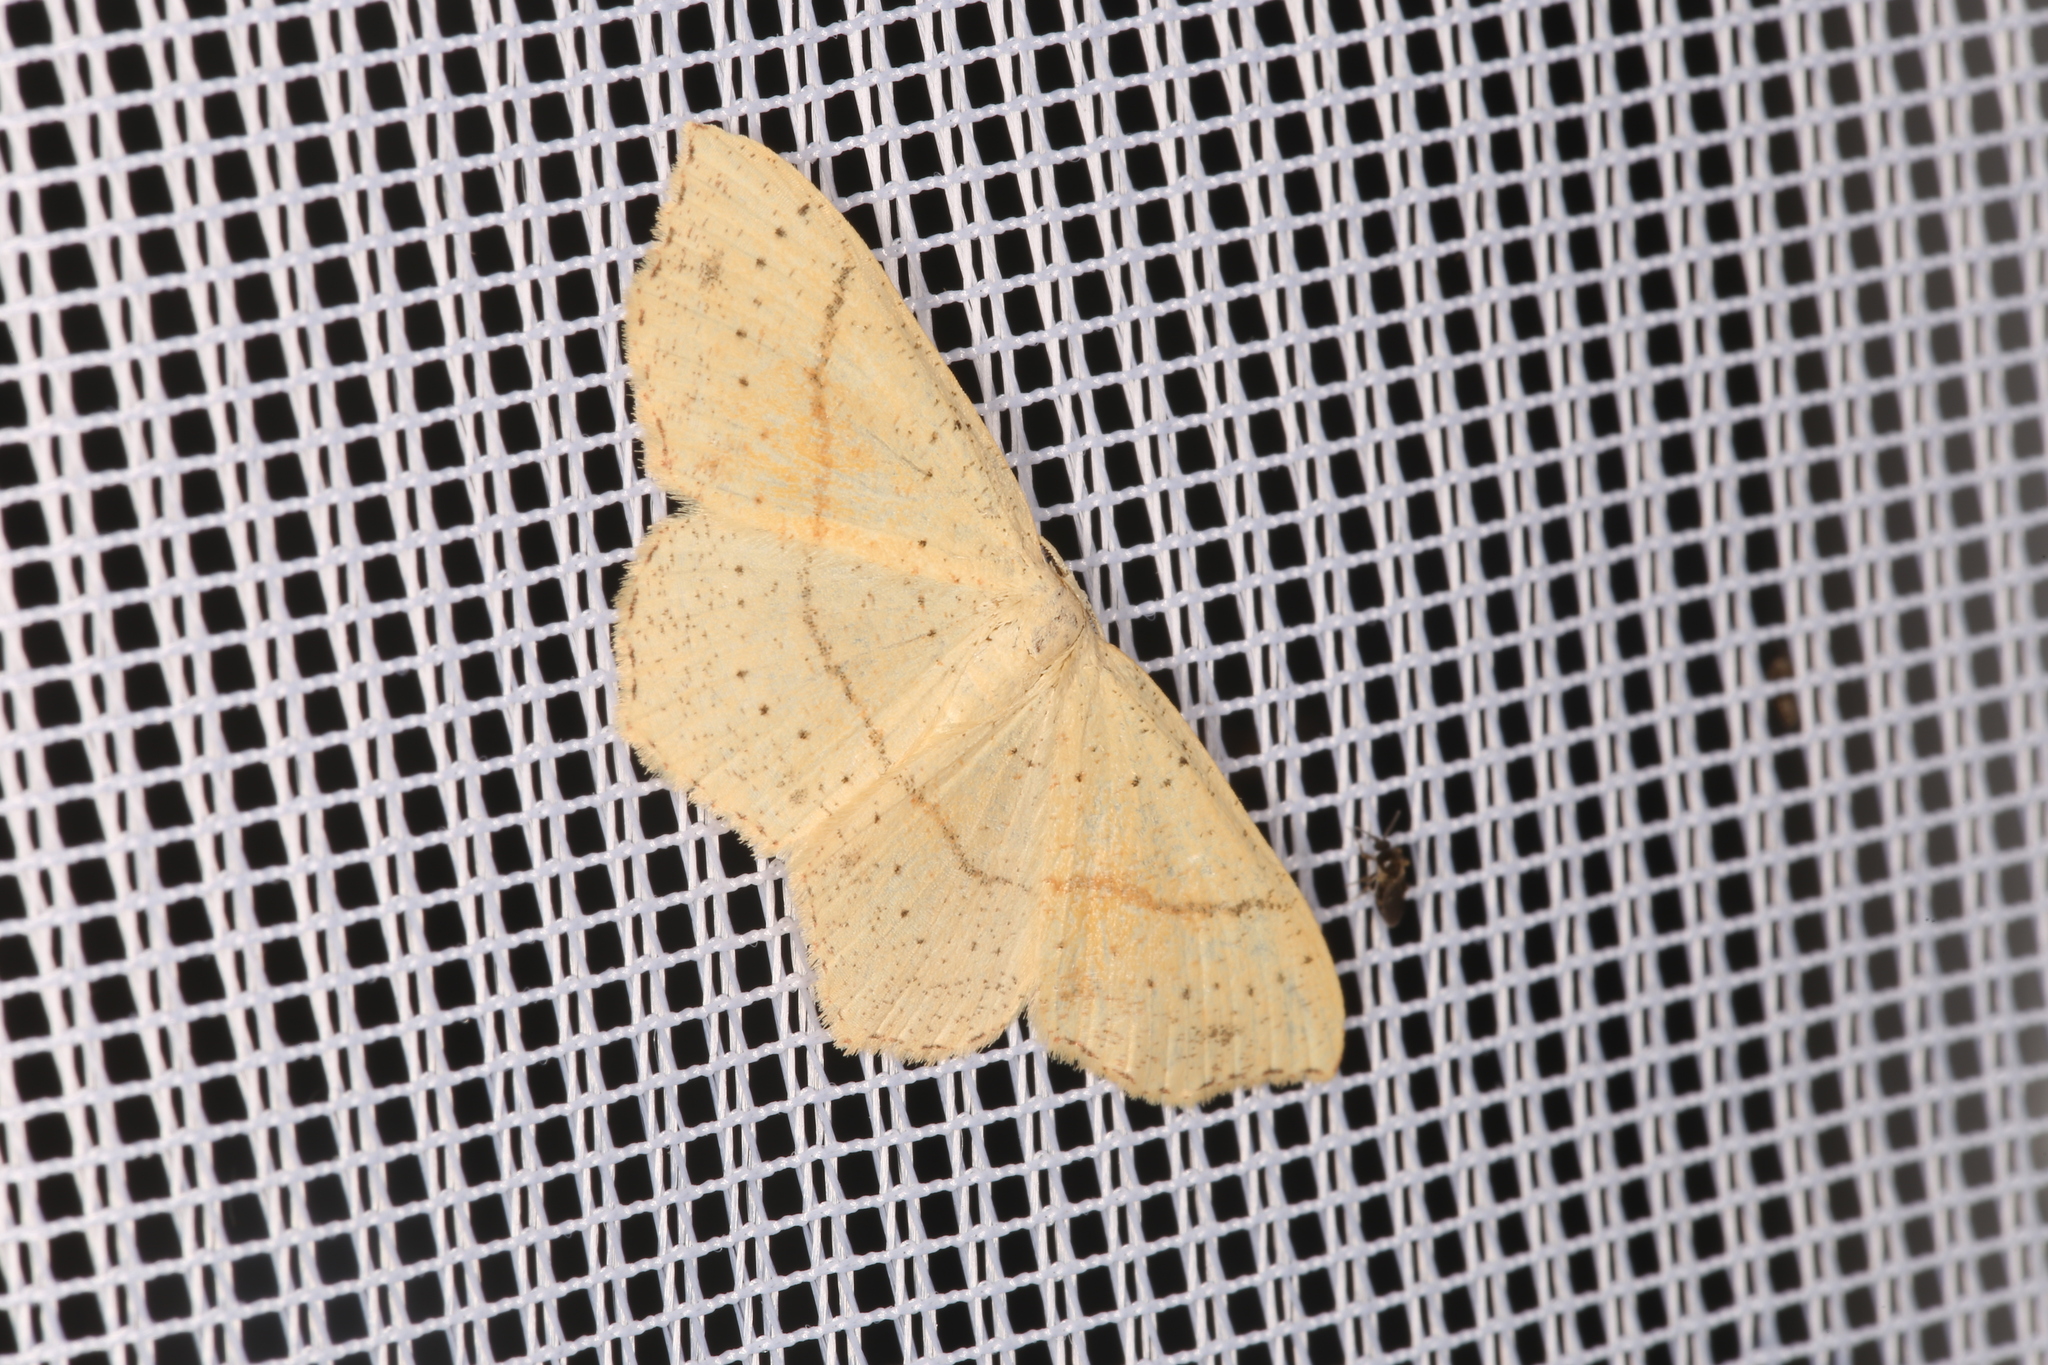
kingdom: Animalia
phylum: Arthropoda
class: Insecta
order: Lepidoptera
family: Geometridae
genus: Cyclophora
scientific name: Cyclophora punctaria
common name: Maiden's blush
